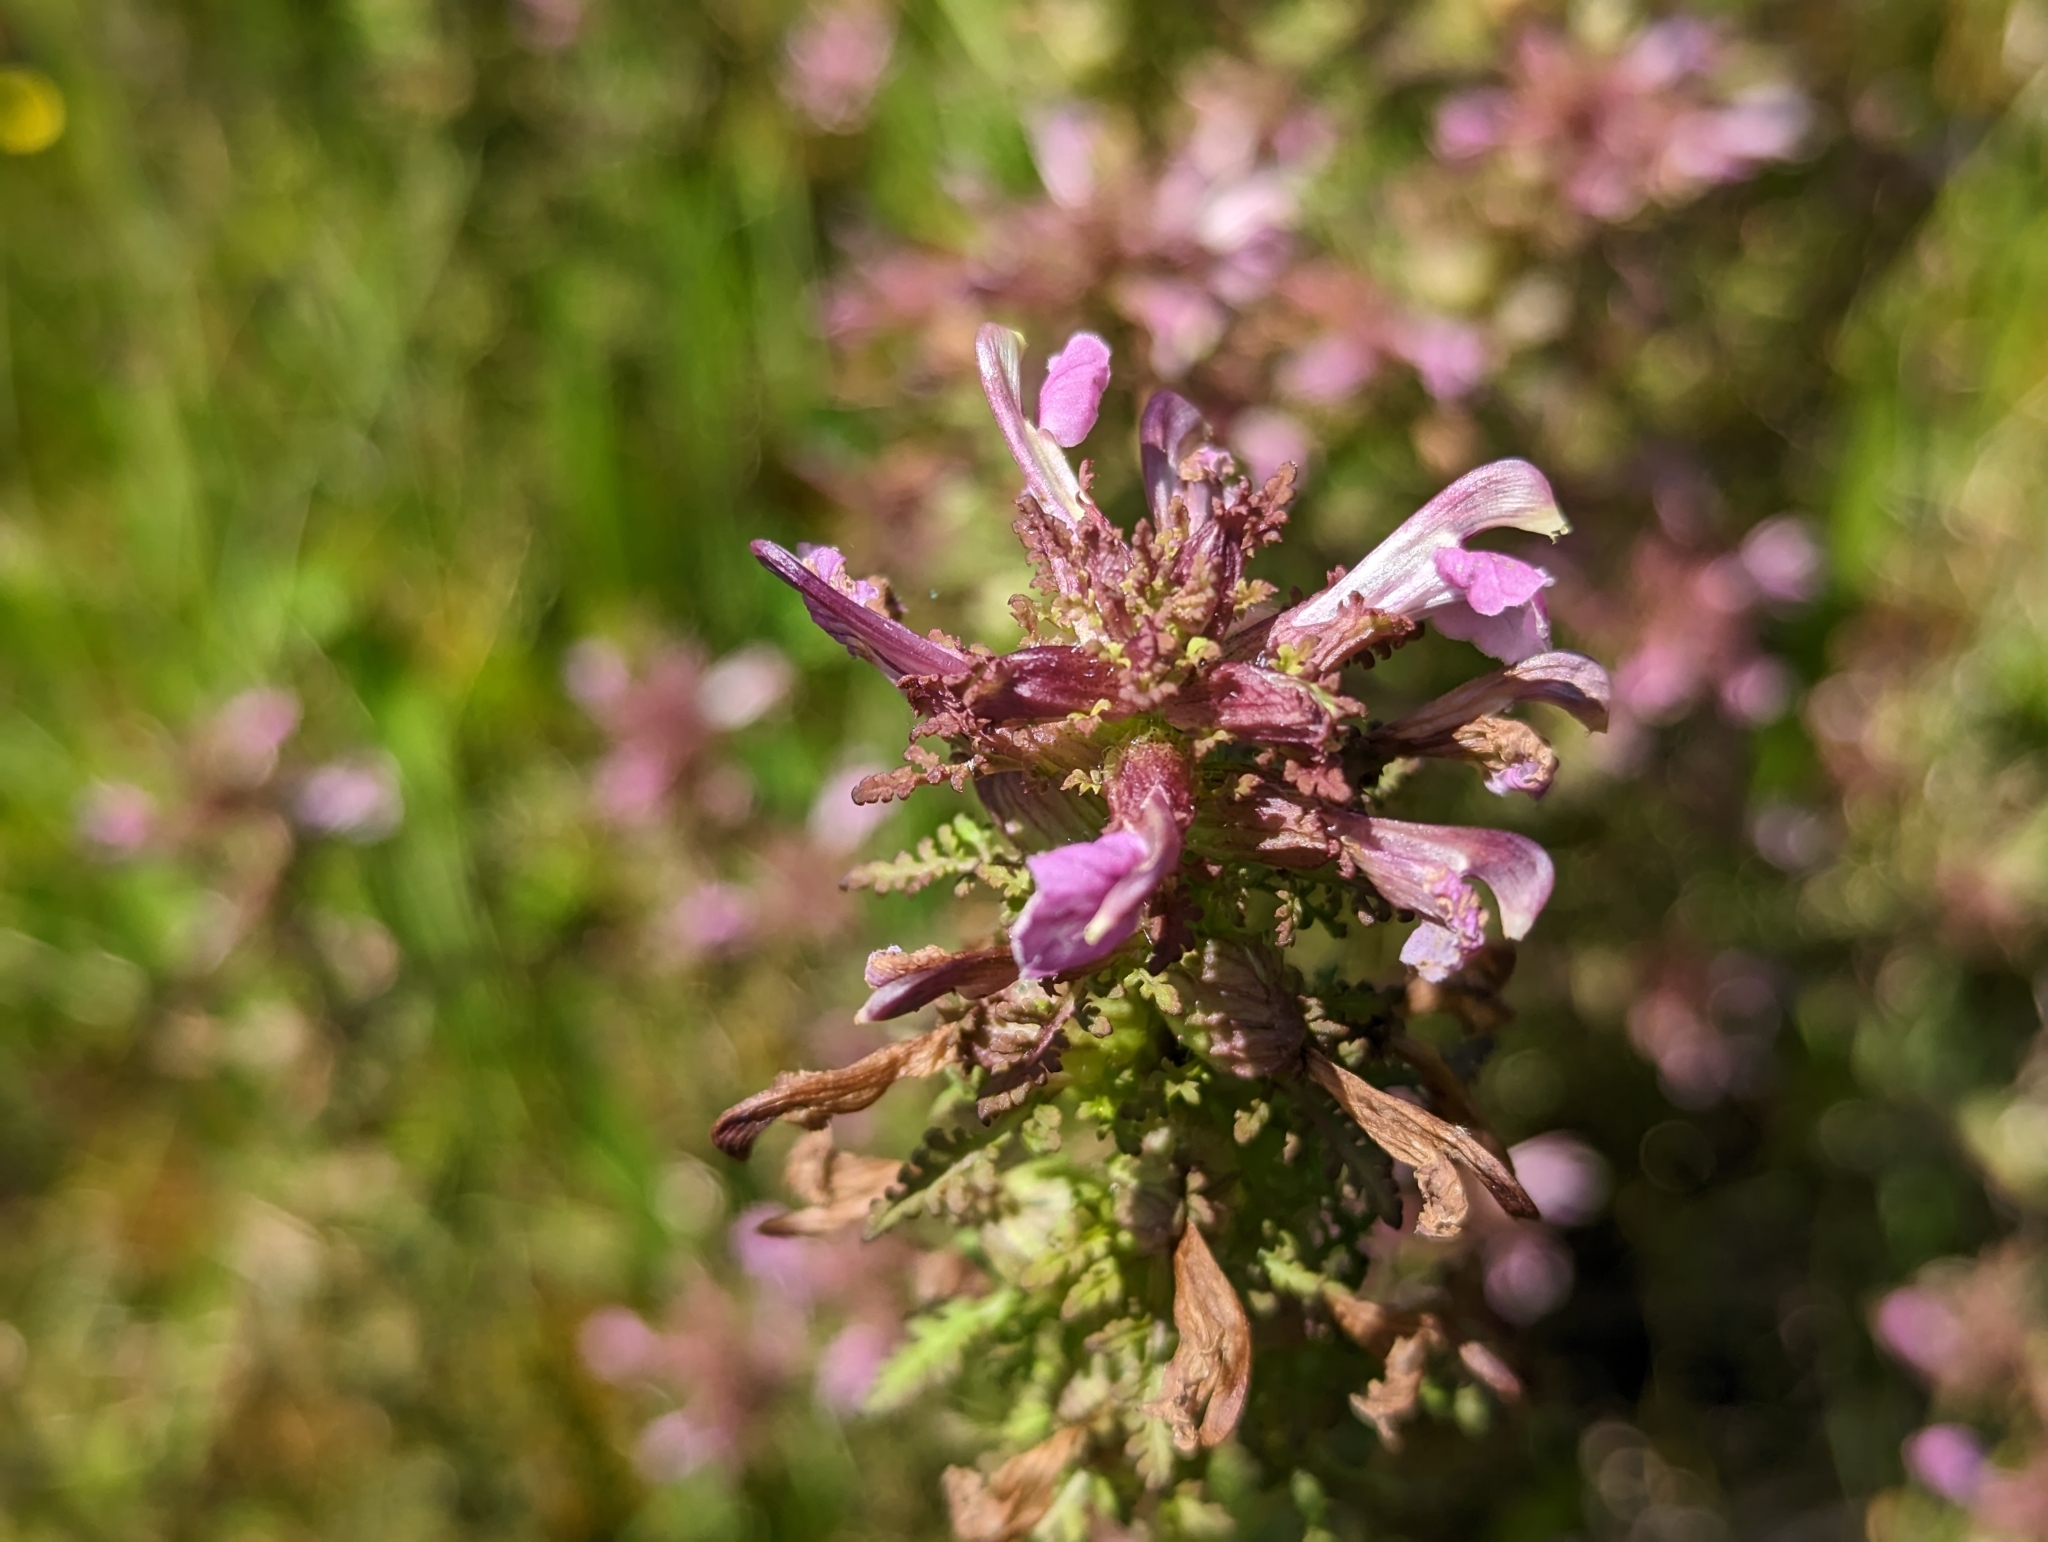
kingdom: Plantae
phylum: Tracheophyta
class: Magnoliopsida
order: Lamiales
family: Orobanchaceae
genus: Pedicularis
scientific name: Pedicularis palustris
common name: Marsh lousewort
